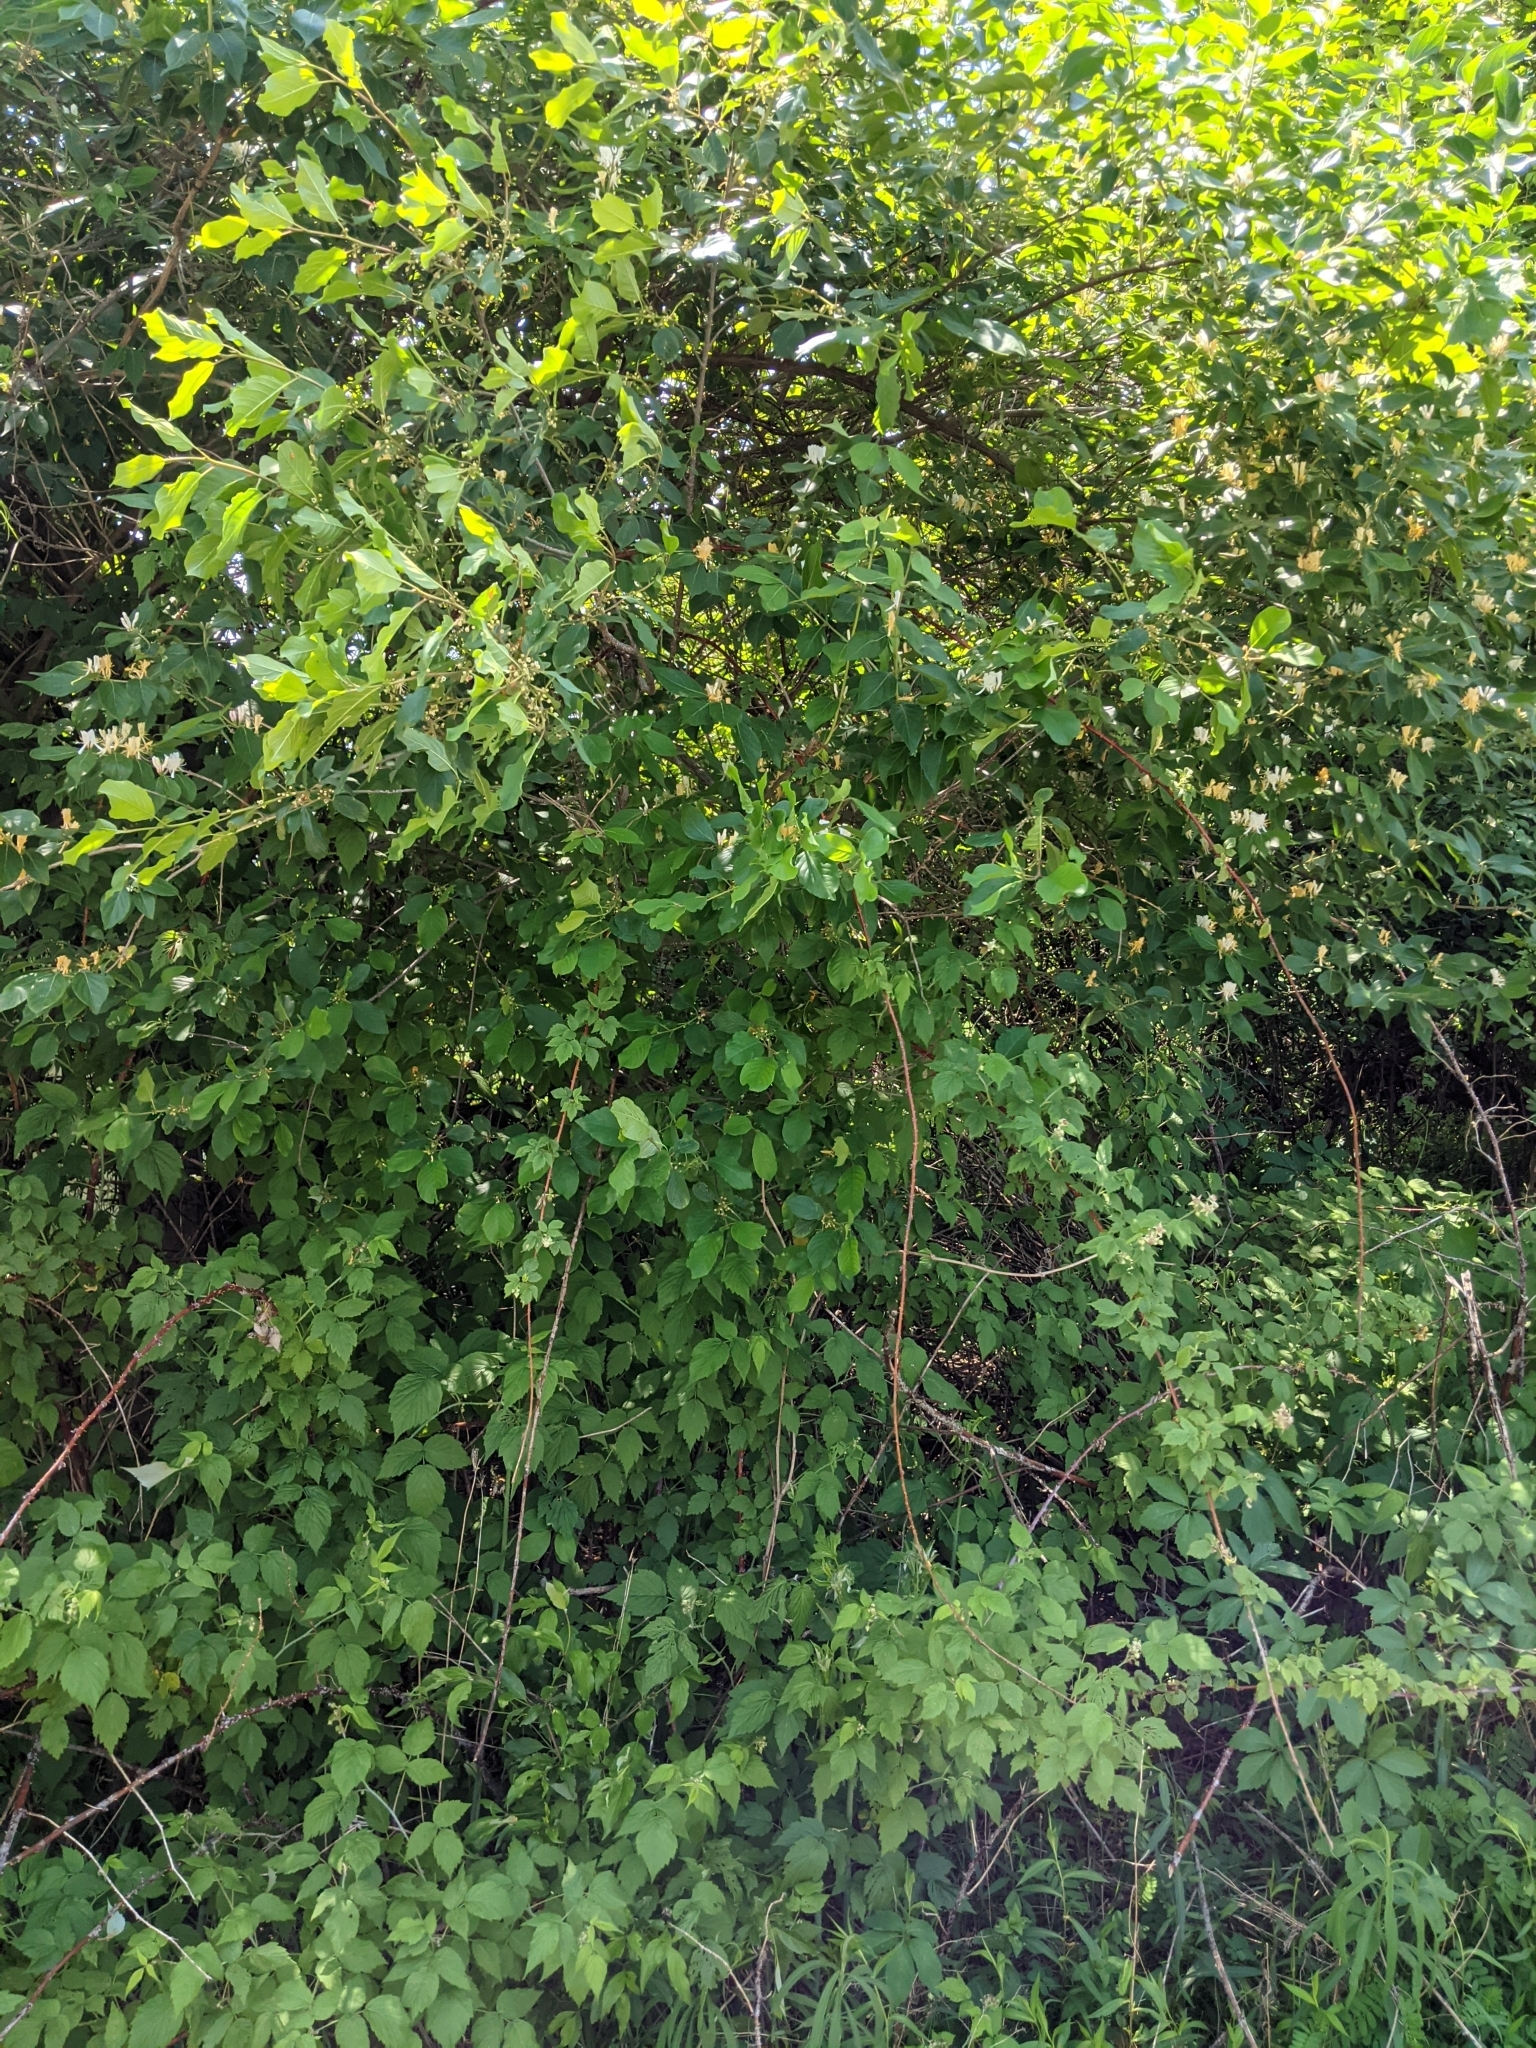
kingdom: Plantae
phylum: Tracheophyta
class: Magnoliopsida
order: Rosales
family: Rhamnaceae
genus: Frangula
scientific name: Frangula alnus
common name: Alder buckthorn
